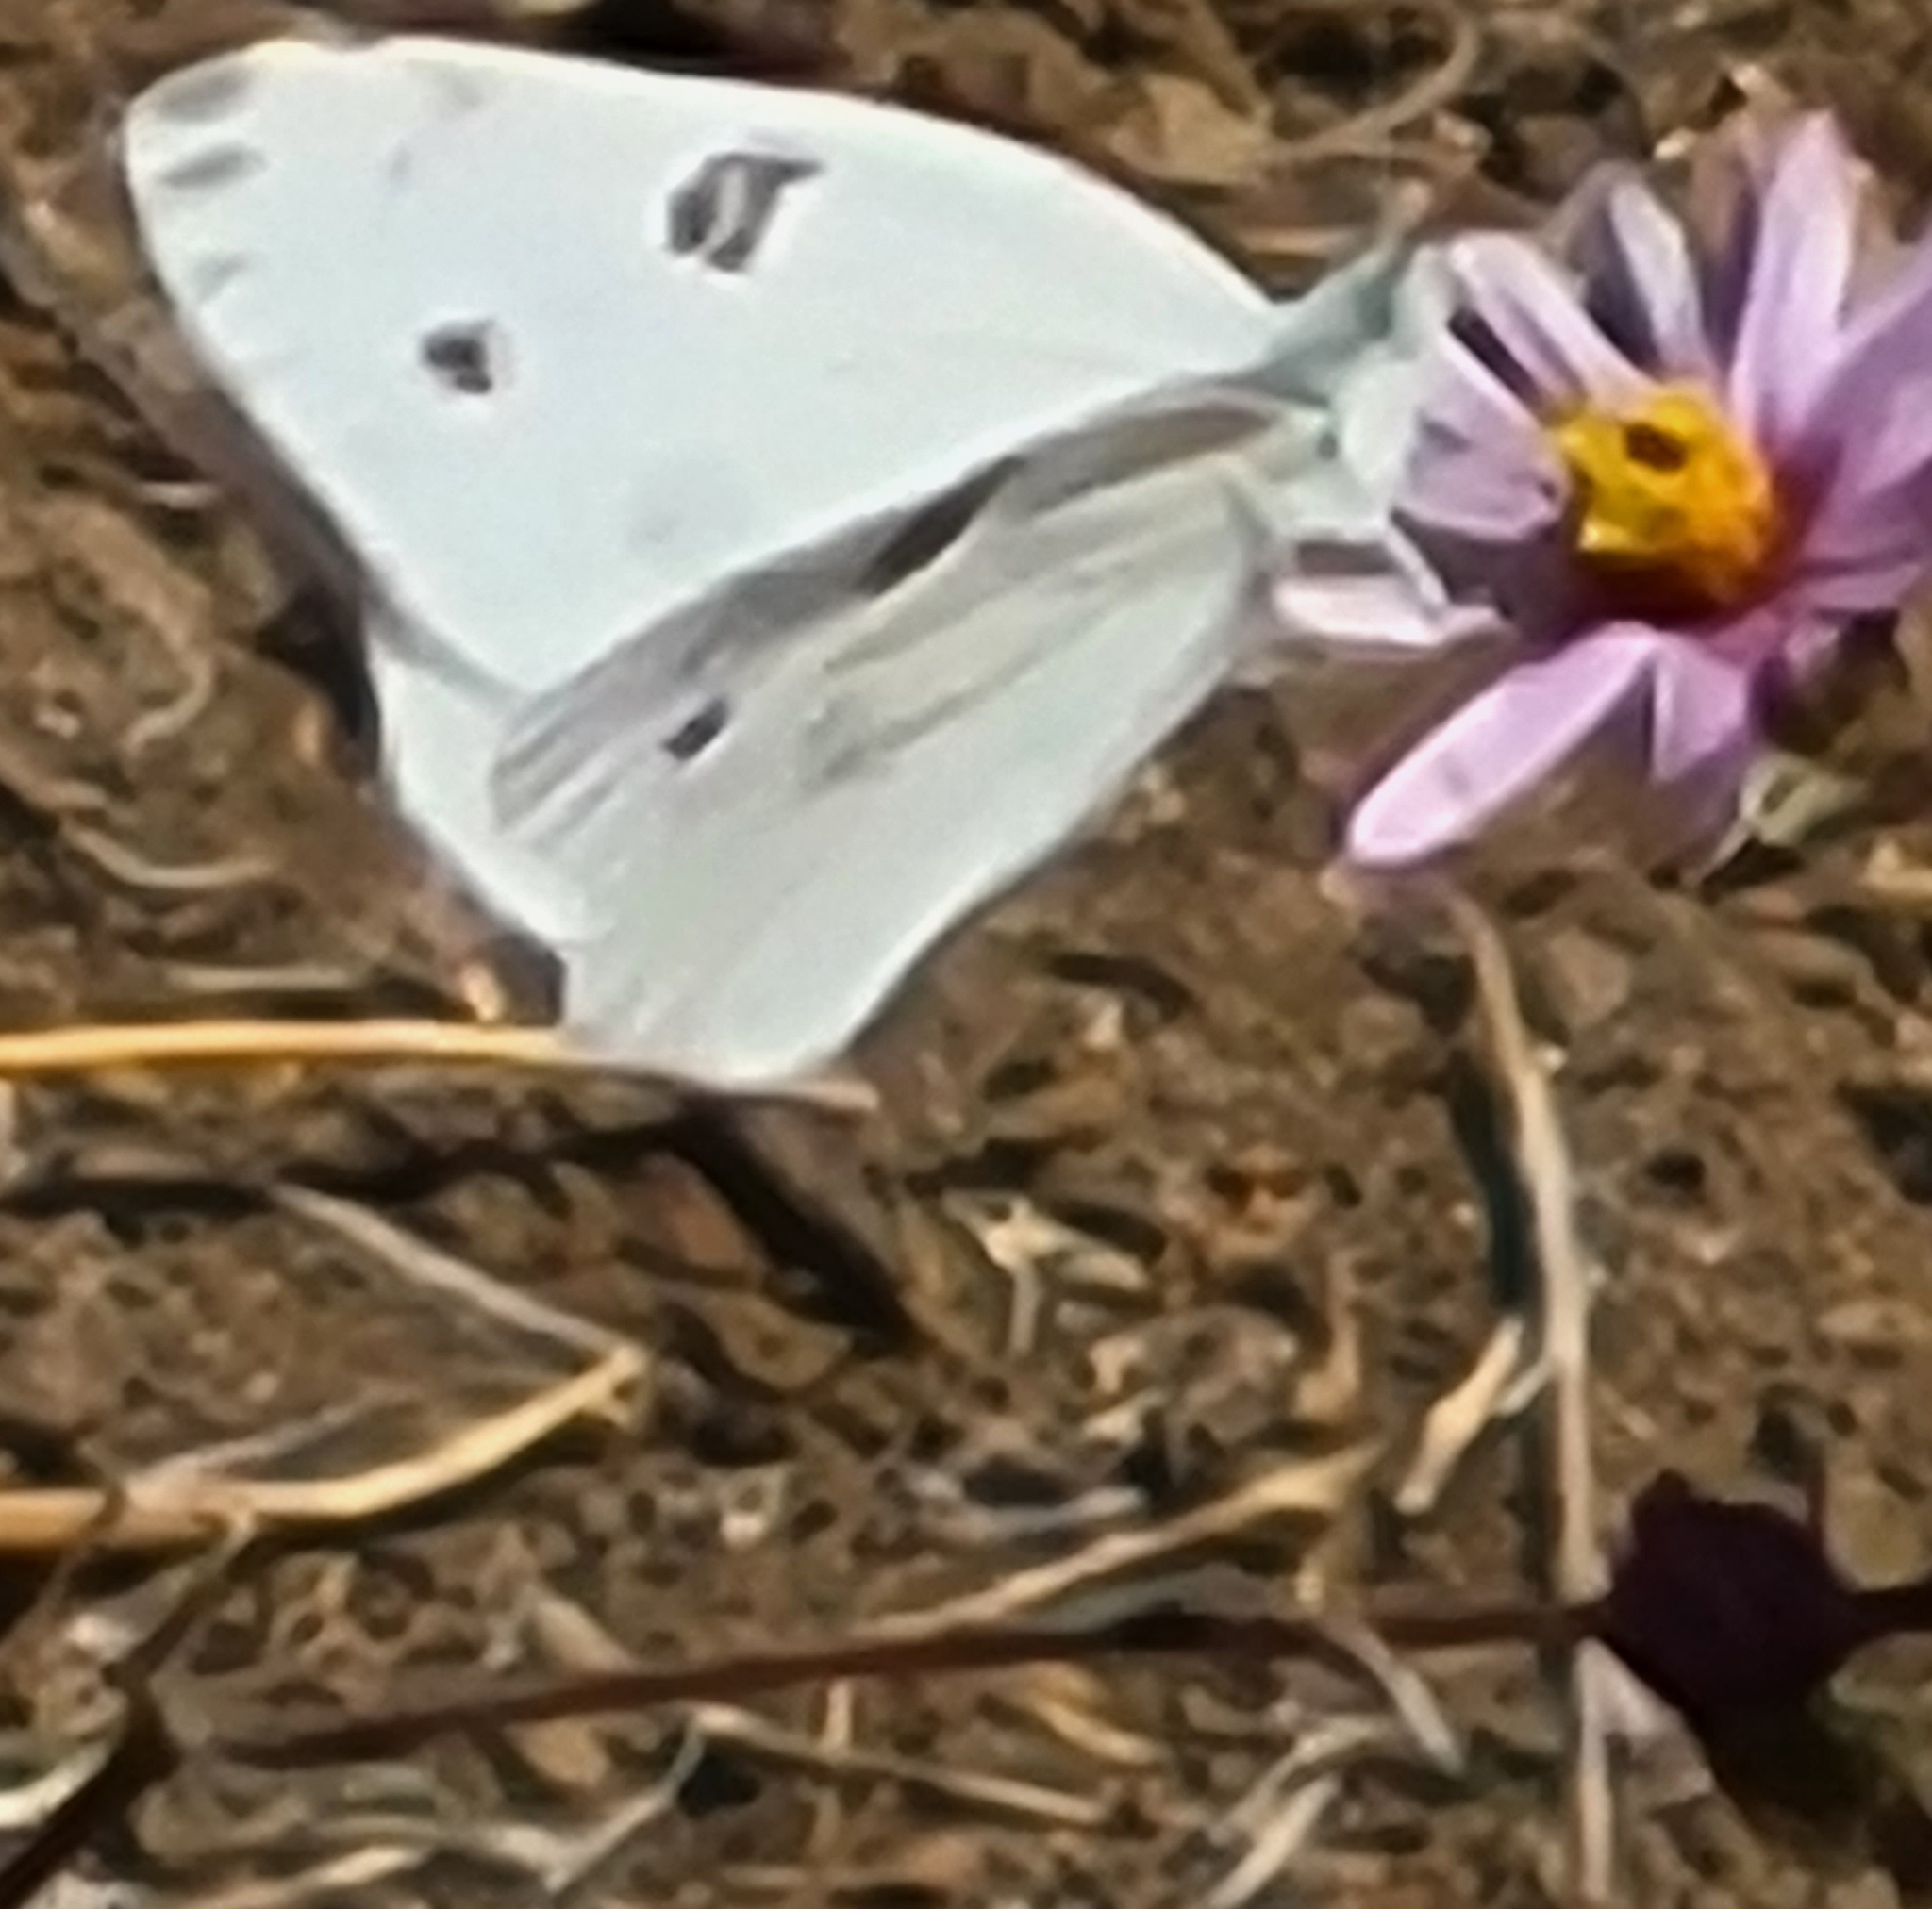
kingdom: Animalia
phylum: Arthropoda
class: Insecta
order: Lepidoptera
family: Pieridae
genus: Pontia
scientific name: Pontia protodice
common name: Checkered white
